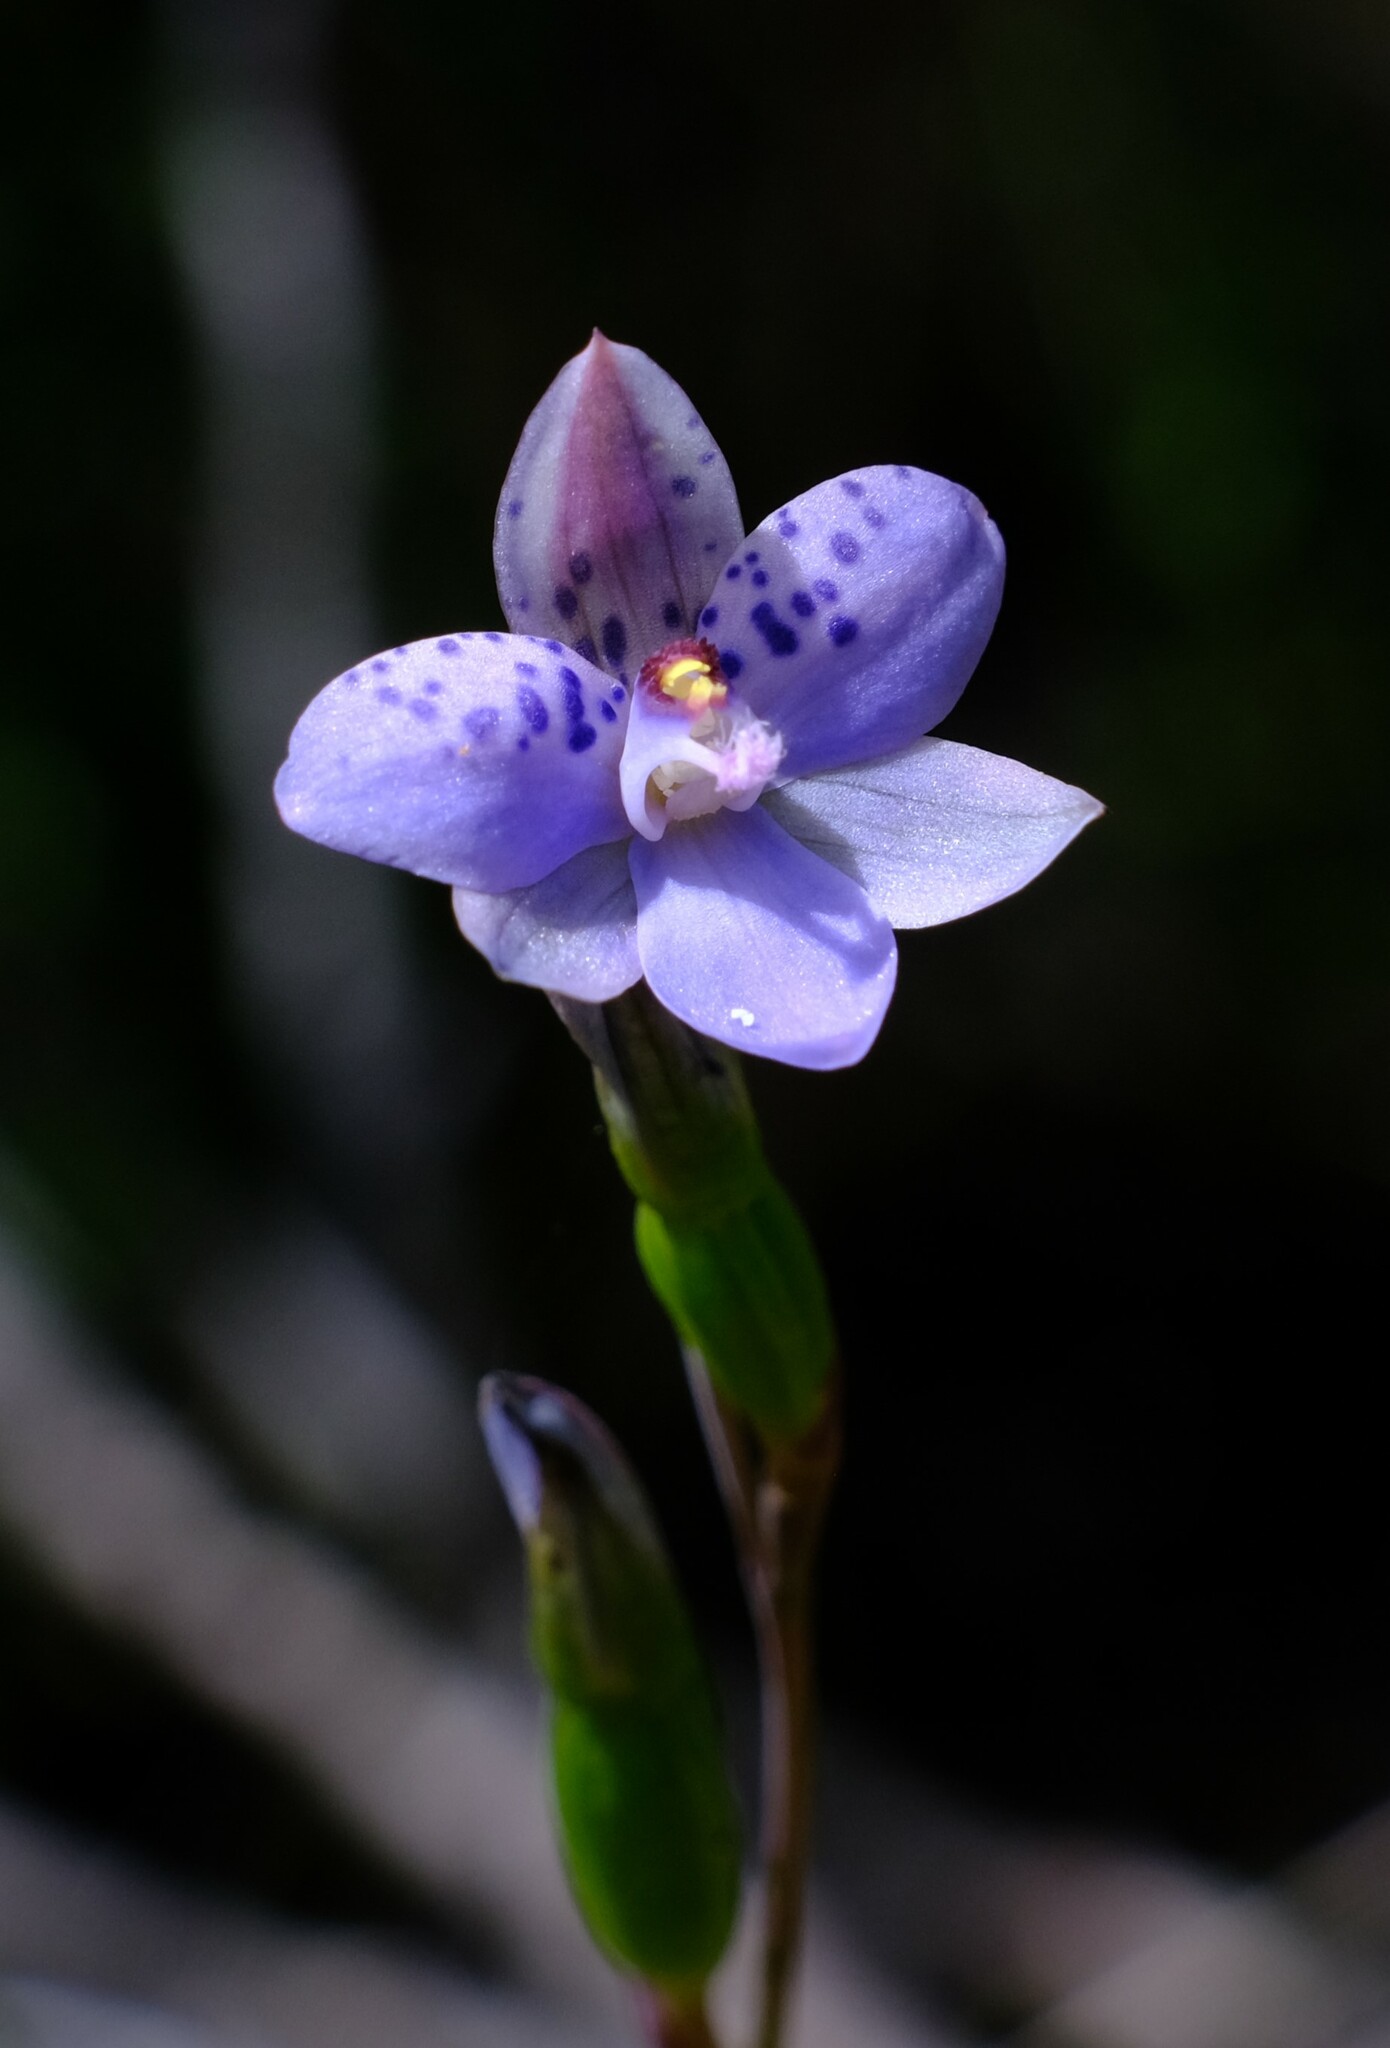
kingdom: Plantae
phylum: Tracheophyta
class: Liliopsida
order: Asparagales
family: Orchidaceae
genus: Thelymitra
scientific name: Thelymitra juncifolia
